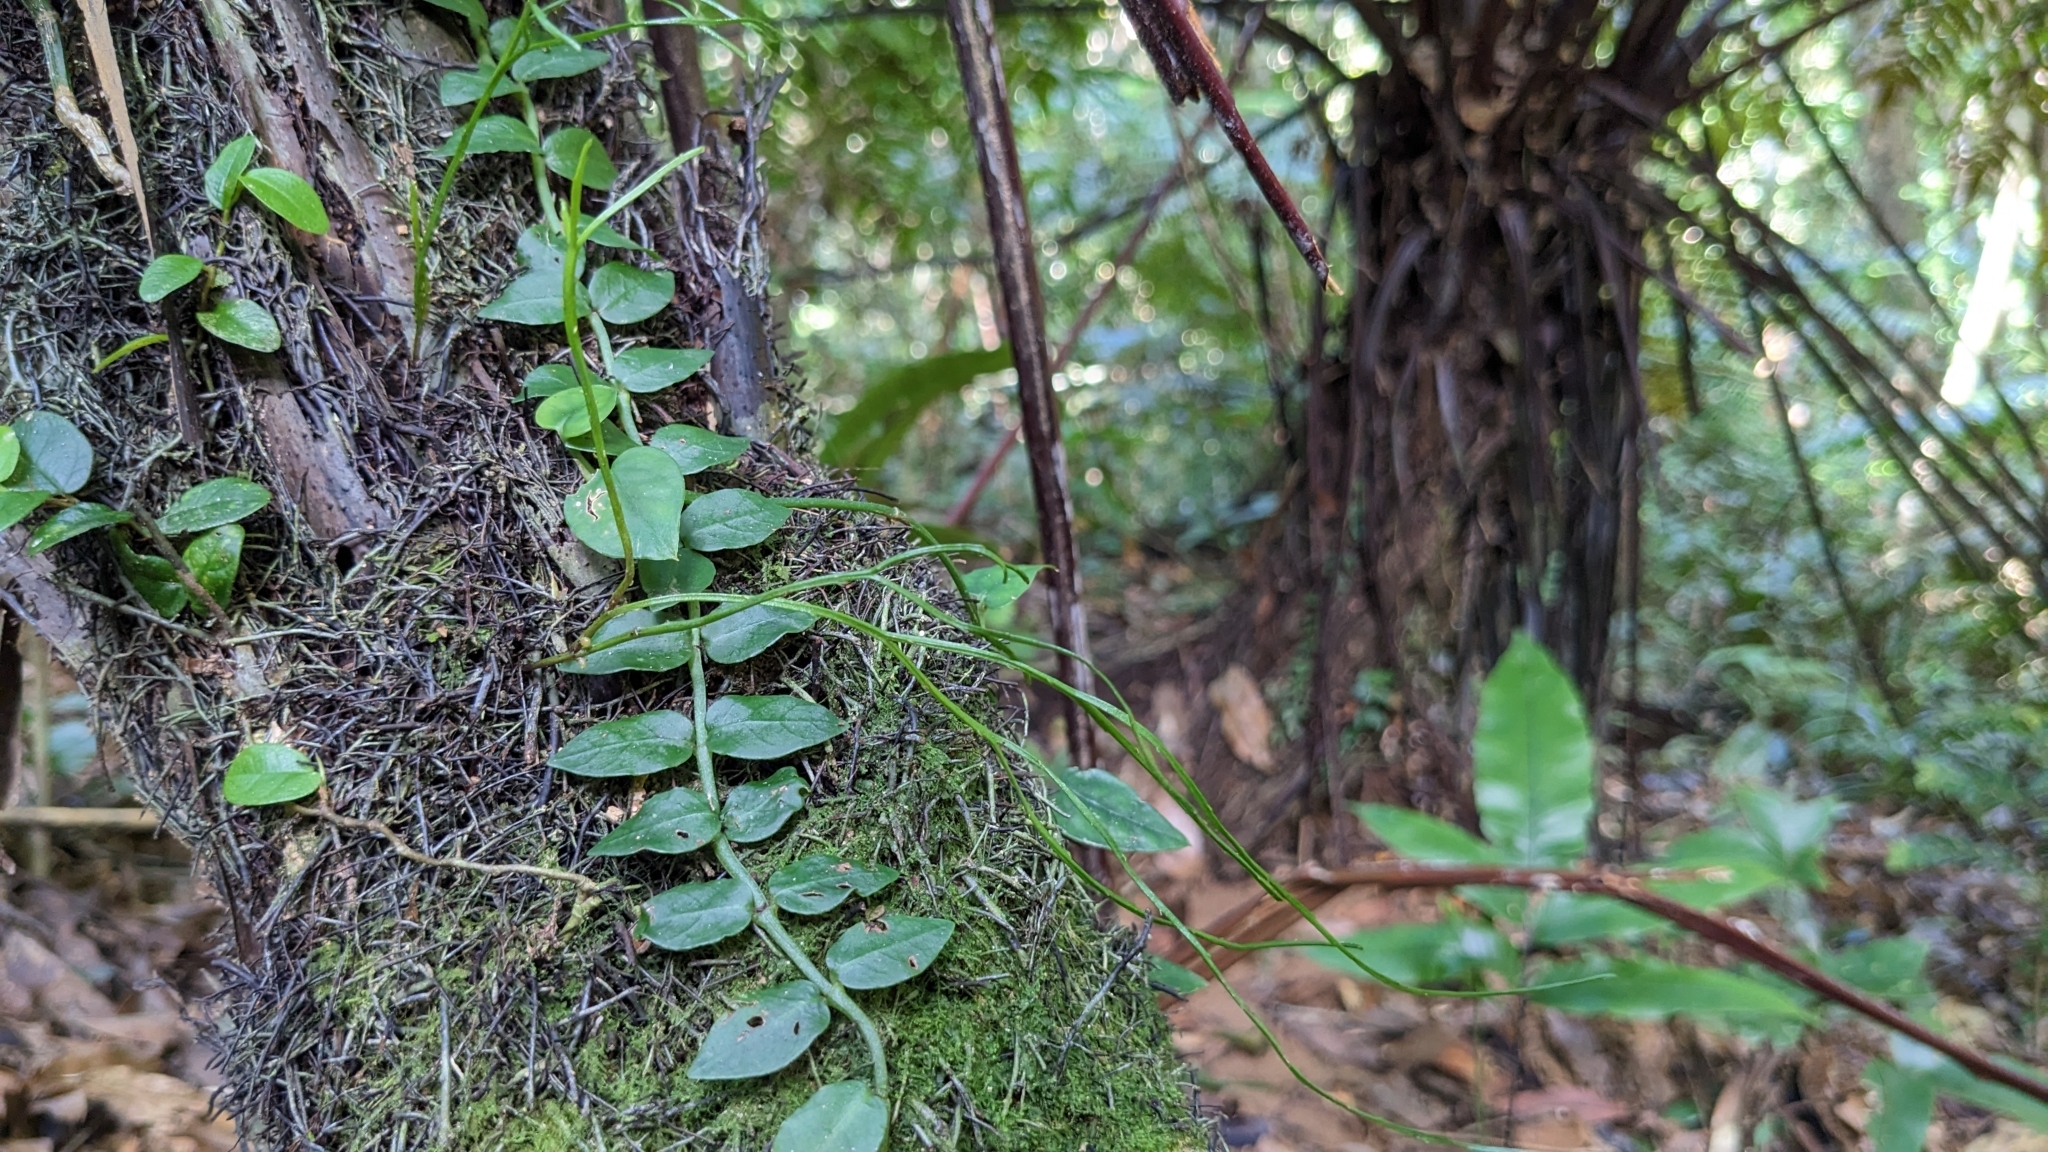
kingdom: Plantae
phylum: Tracheophyta
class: Polypodiopsida
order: Psilotales
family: Psilotaceae
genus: Psilotum
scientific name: Psilotum nudum
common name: Skeleton fork fern
